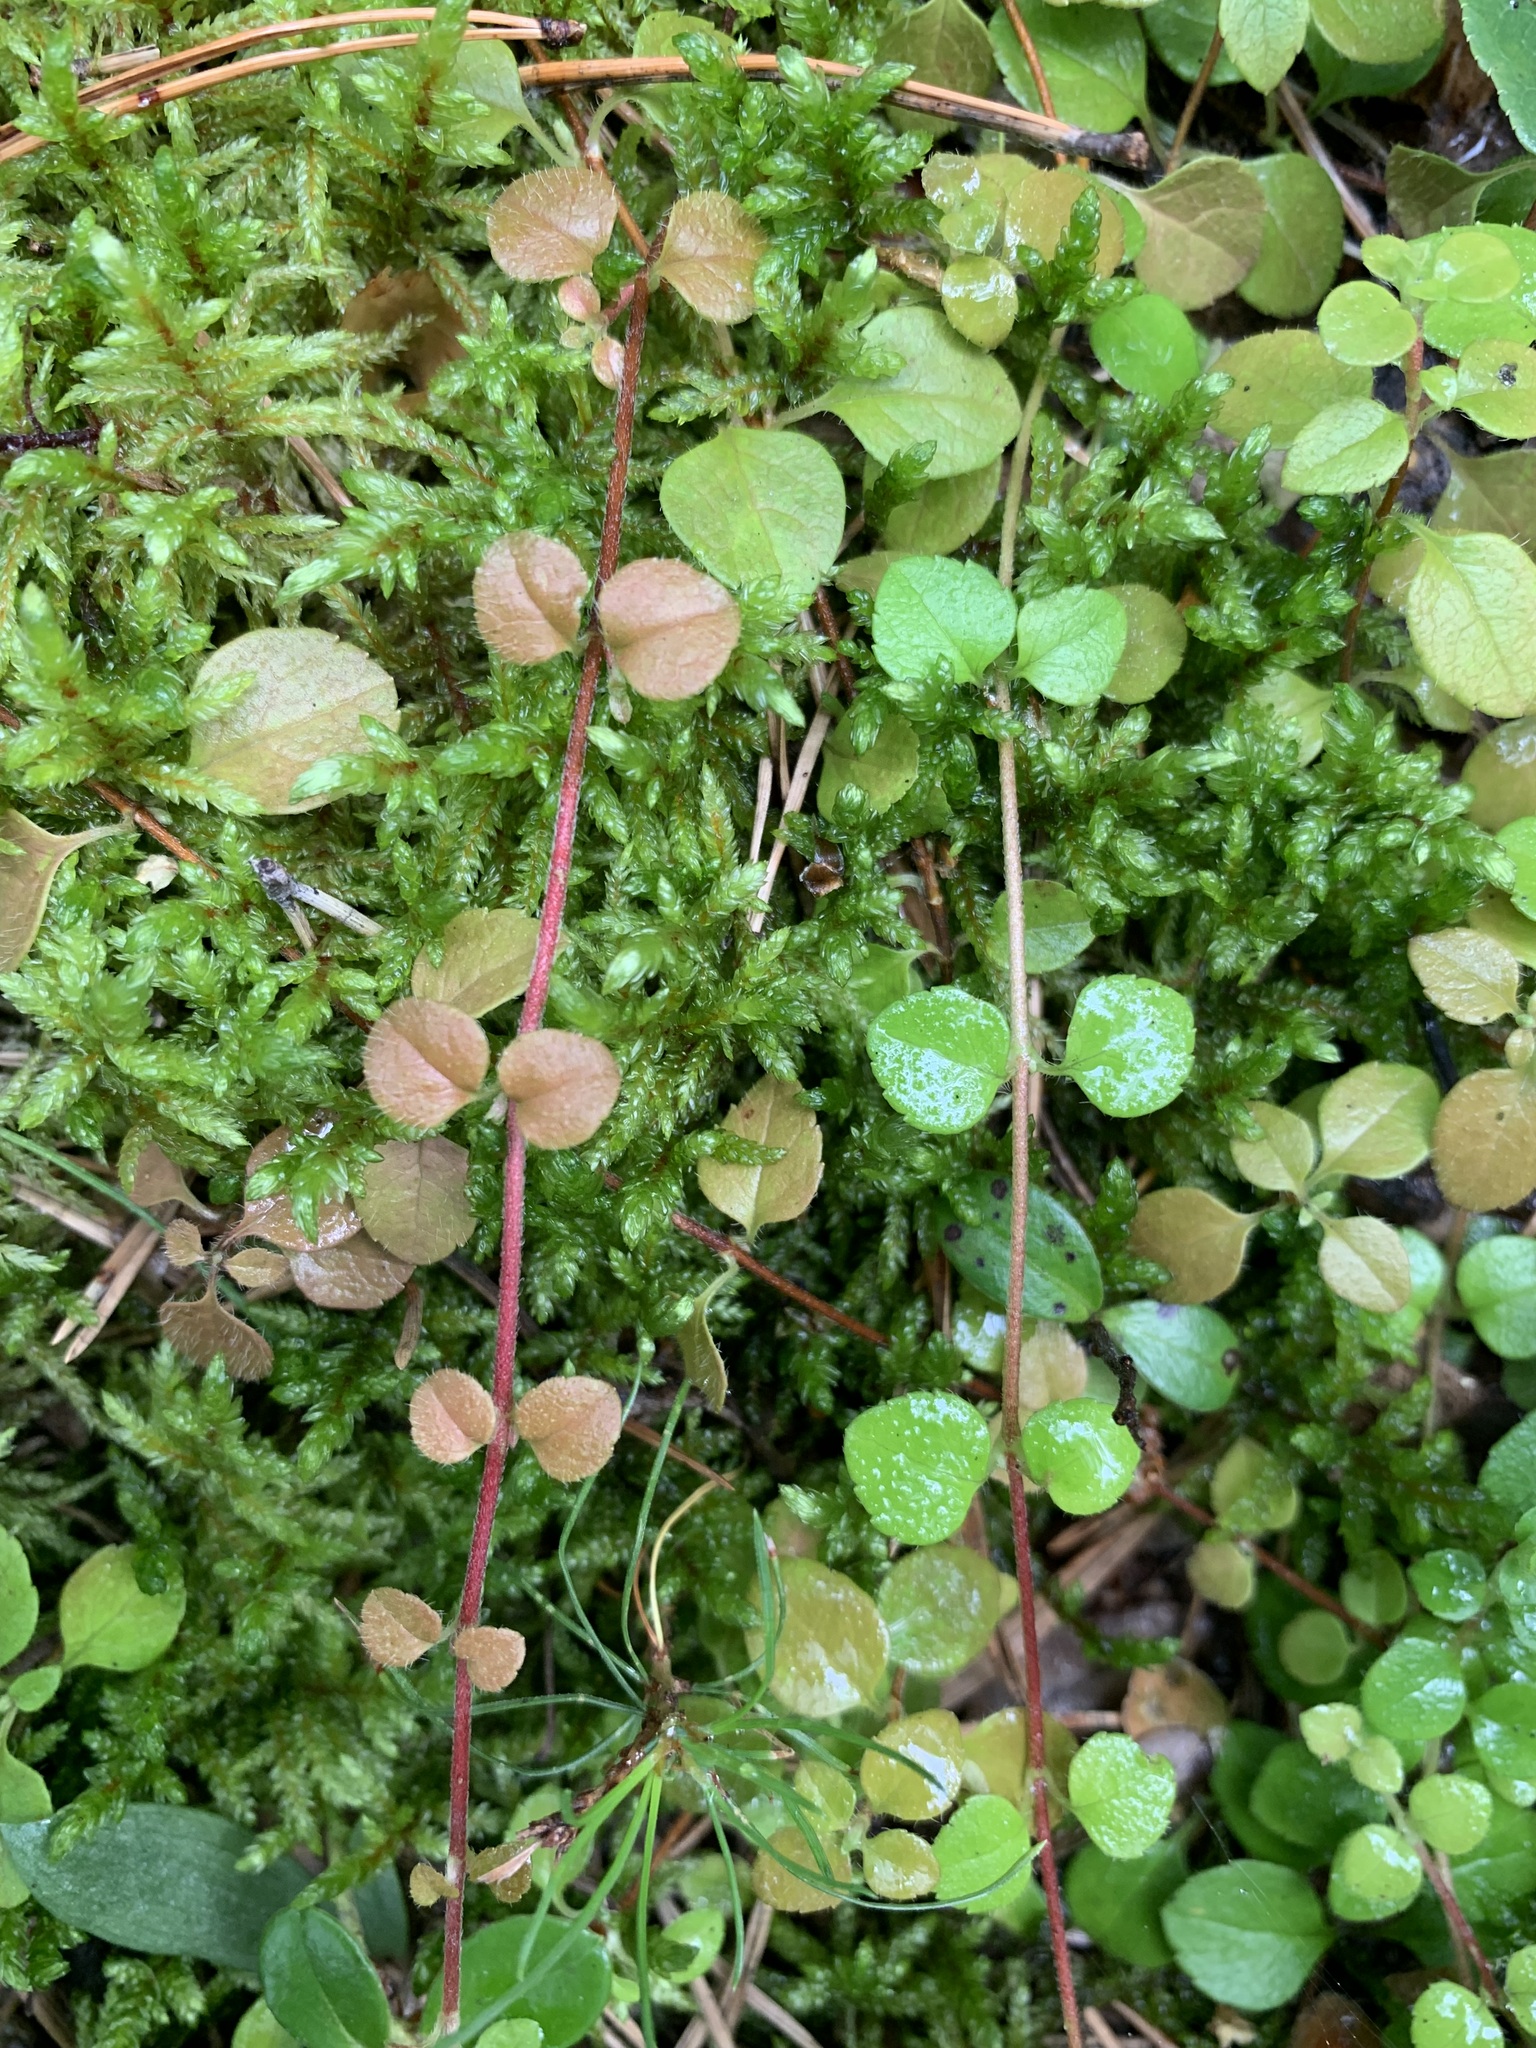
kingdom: Plantae
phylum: Tracheophyta
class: Magnoliopsida
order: Dipsacales
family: Caprifoliaceae
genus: Linnaea
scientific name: Linnaea borealis
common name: Twinflower
